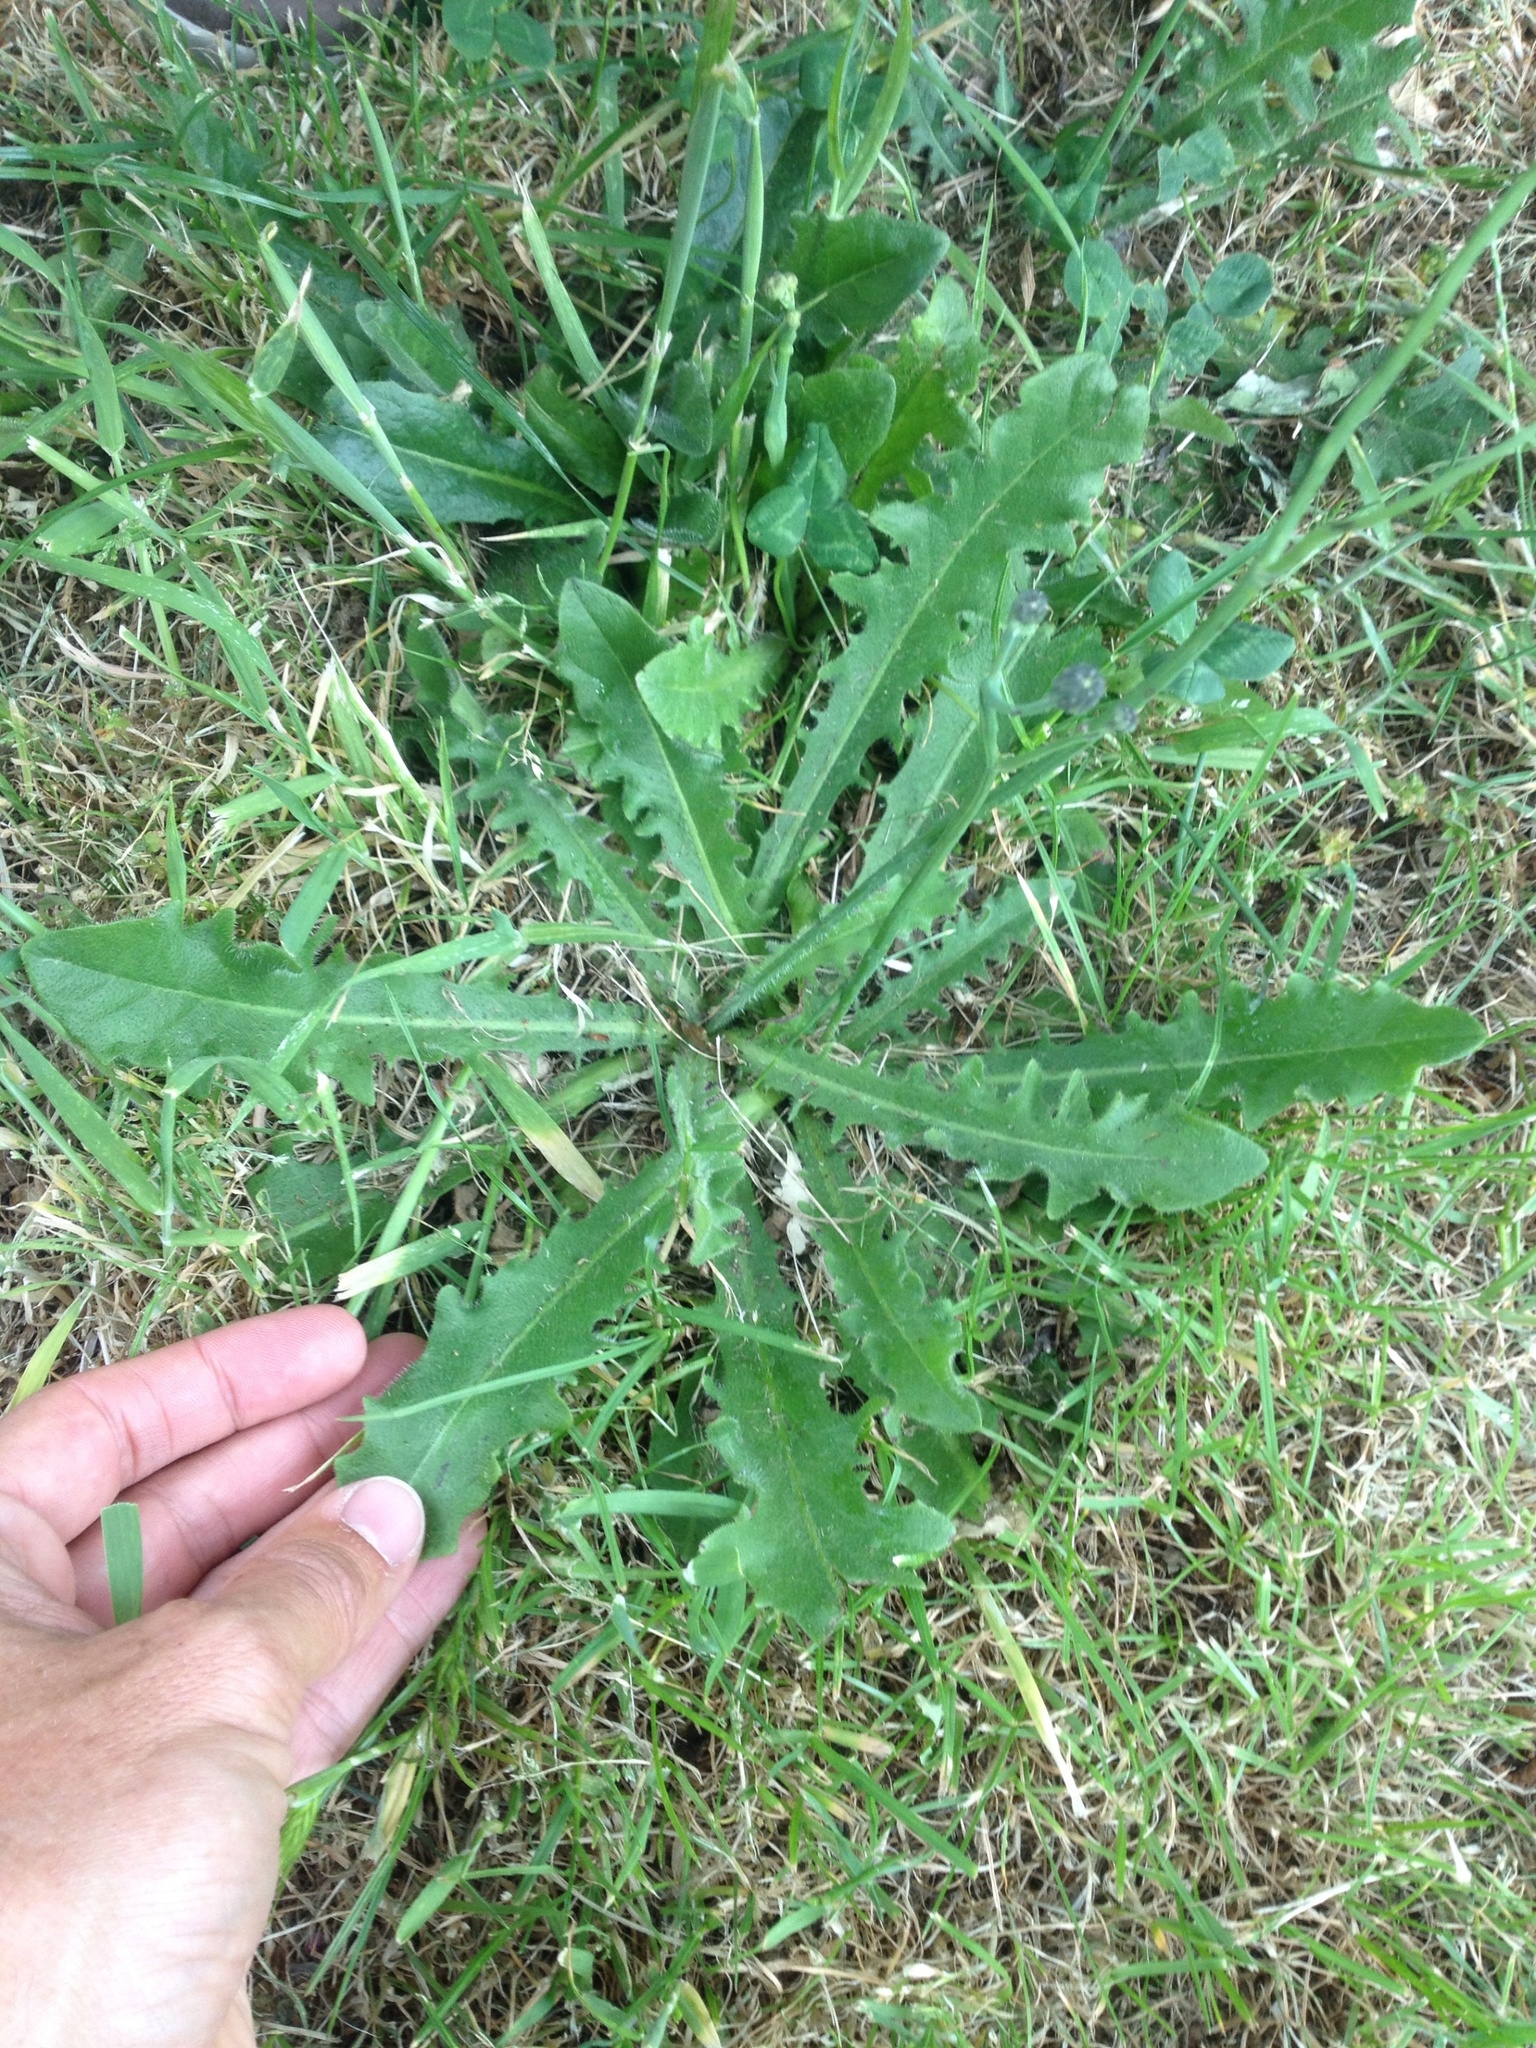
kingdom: Plantae
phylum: Tracheophyta
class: Magnoliopsida
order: Asterales
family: Asteraceae
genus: Hypochaeris
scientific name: Hypochaeris radicata
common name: Flatweed
